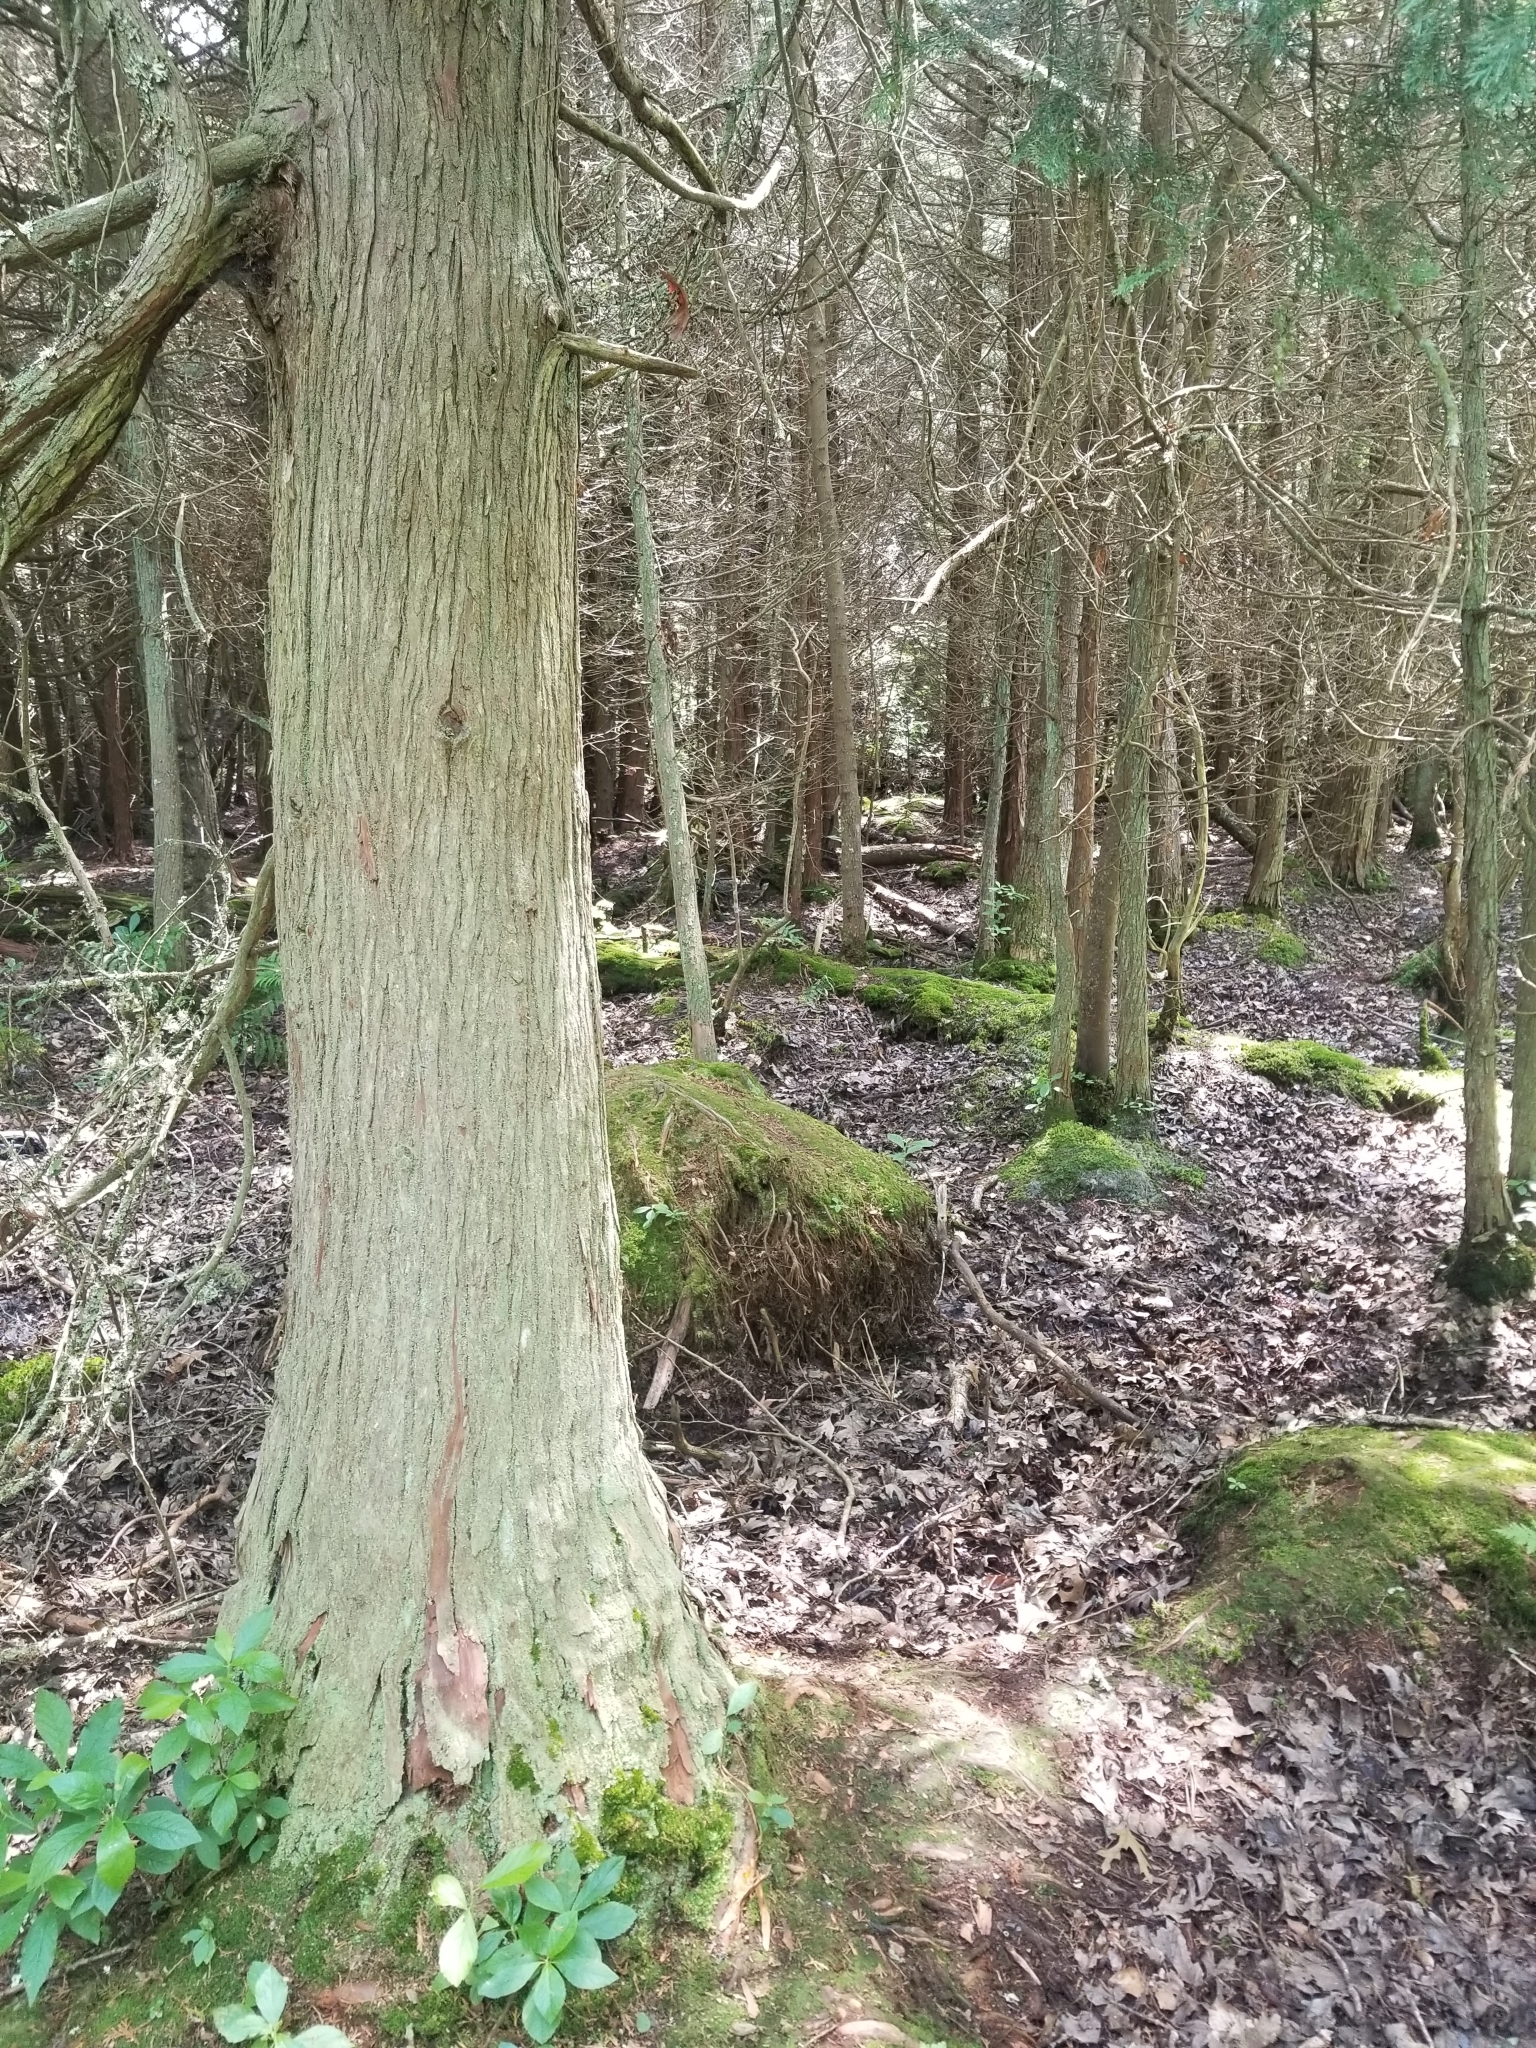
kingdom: Plantae
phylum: Tracheophyta
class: Pinopsida
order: Pinales
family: Cupressaceae
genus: Chamaecyparis
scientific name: Chamaecyparis thyoides
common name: Atlantic white cedar
